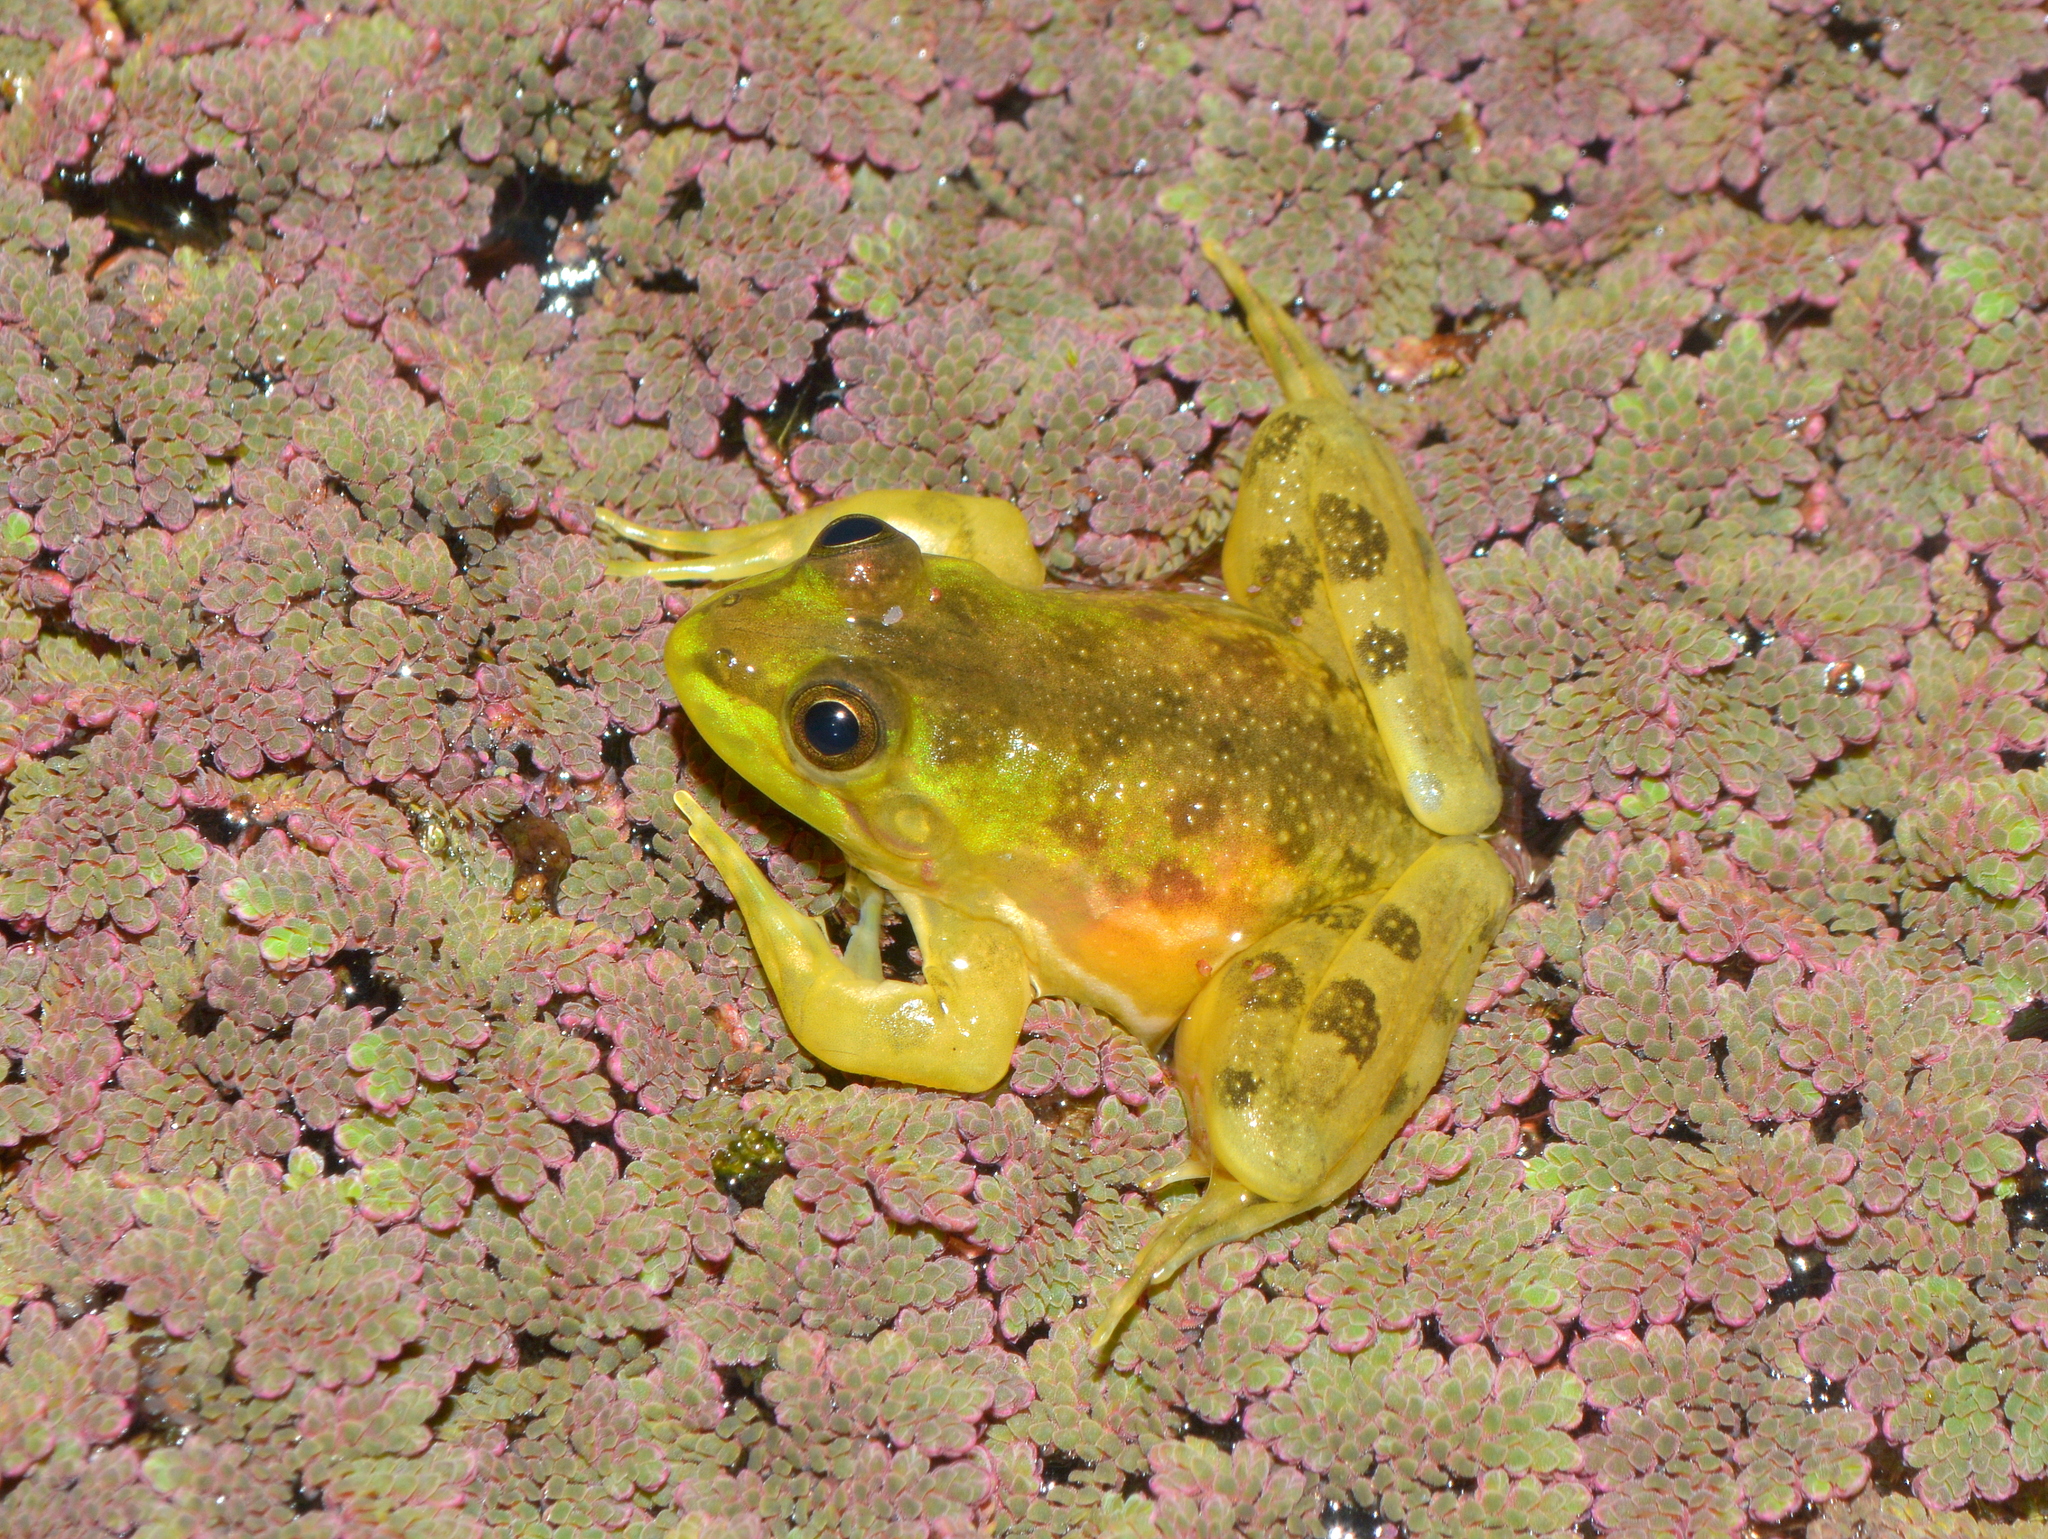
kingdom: Animalia
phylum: Chordata
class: Amphibia
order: Anura
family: Hylidae
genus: Pseudis
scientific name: Pseudis minuta
